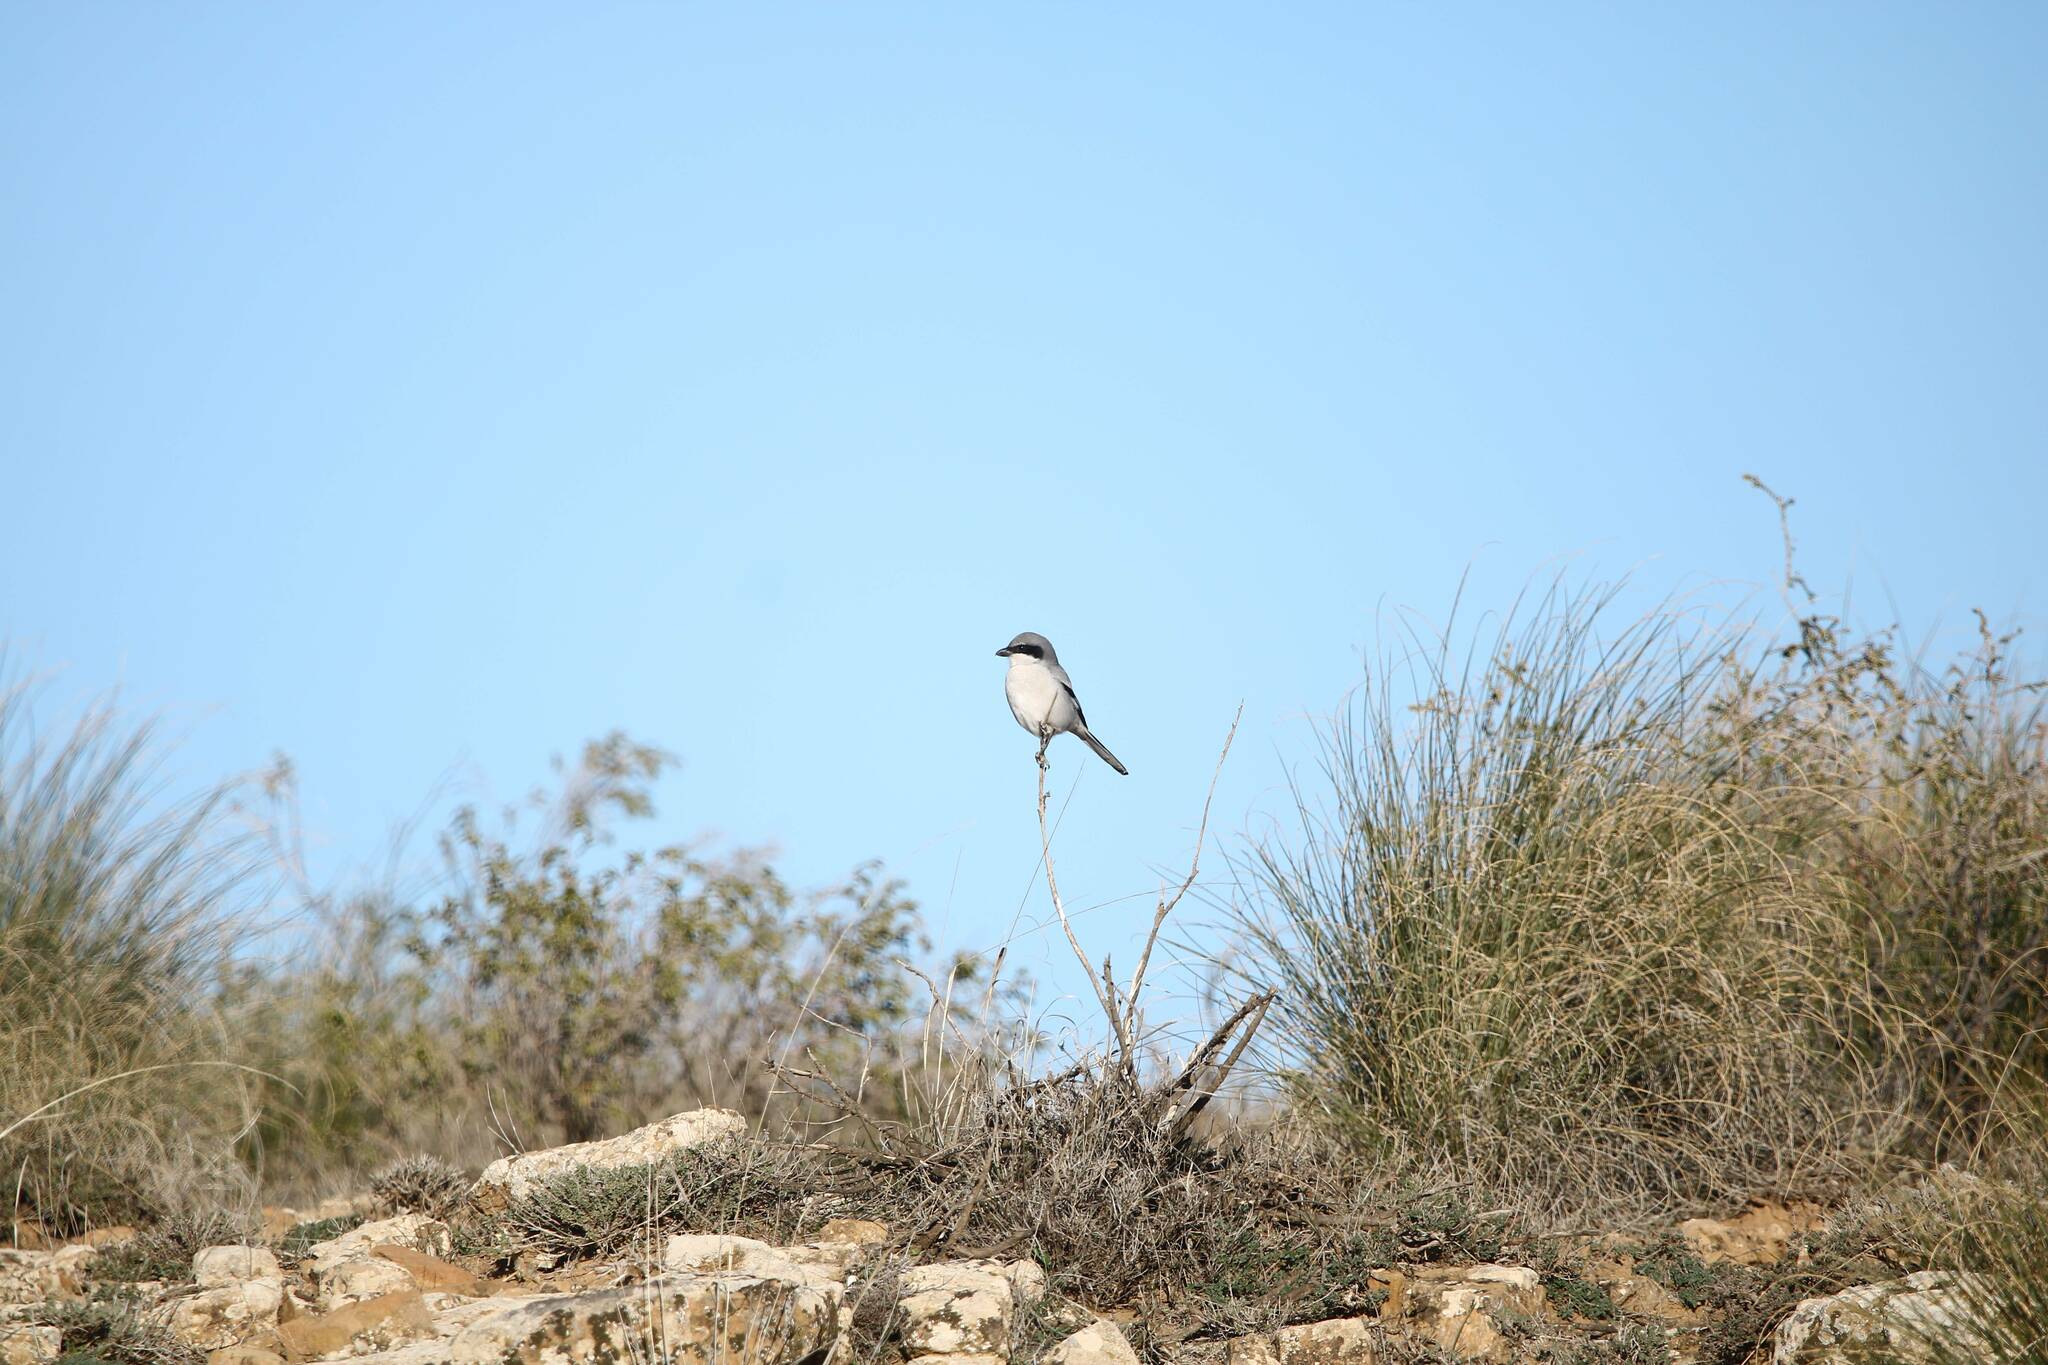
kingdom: Animalia
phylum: Chordata
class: Aves
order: Passeriformes
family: Laniidae
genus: Lanius
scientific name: Lanius excubitor
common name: Great grey shrike
